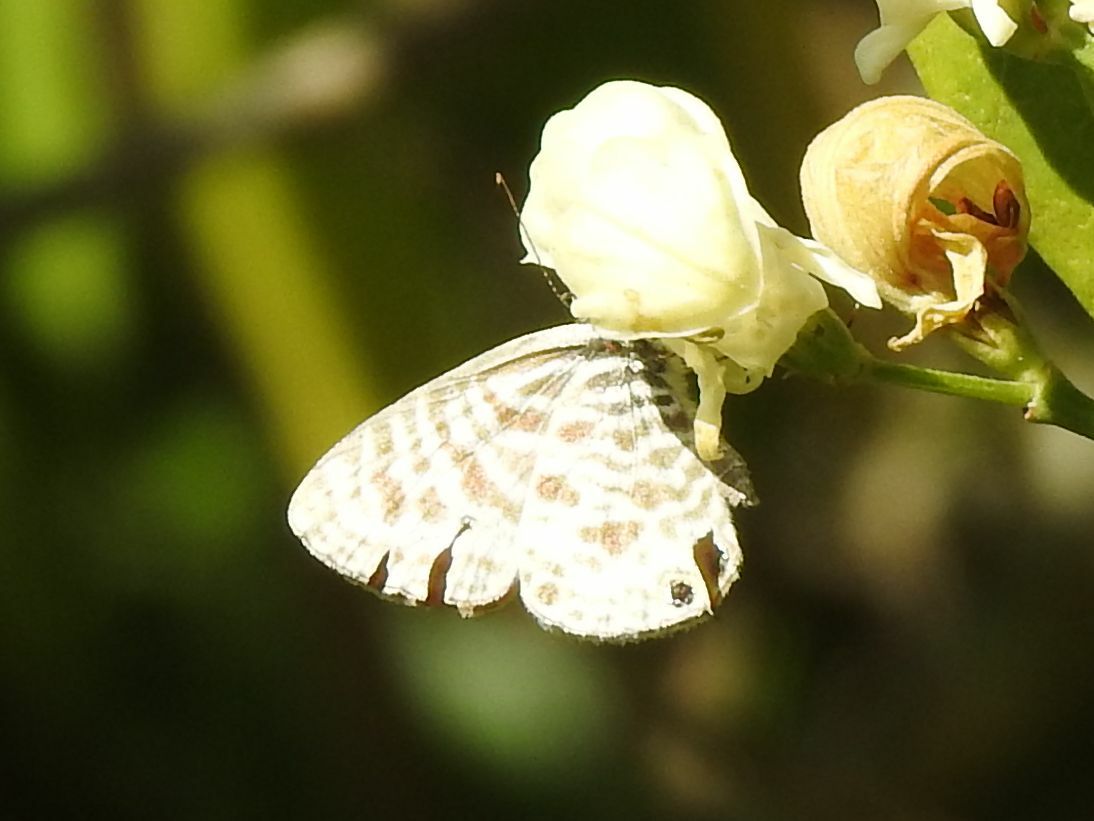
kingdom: Animalia
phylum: Arthropoda
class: Insecta
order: Lepidoptera
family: Lycaenidae
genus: Leptotes
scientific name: Leptotes
